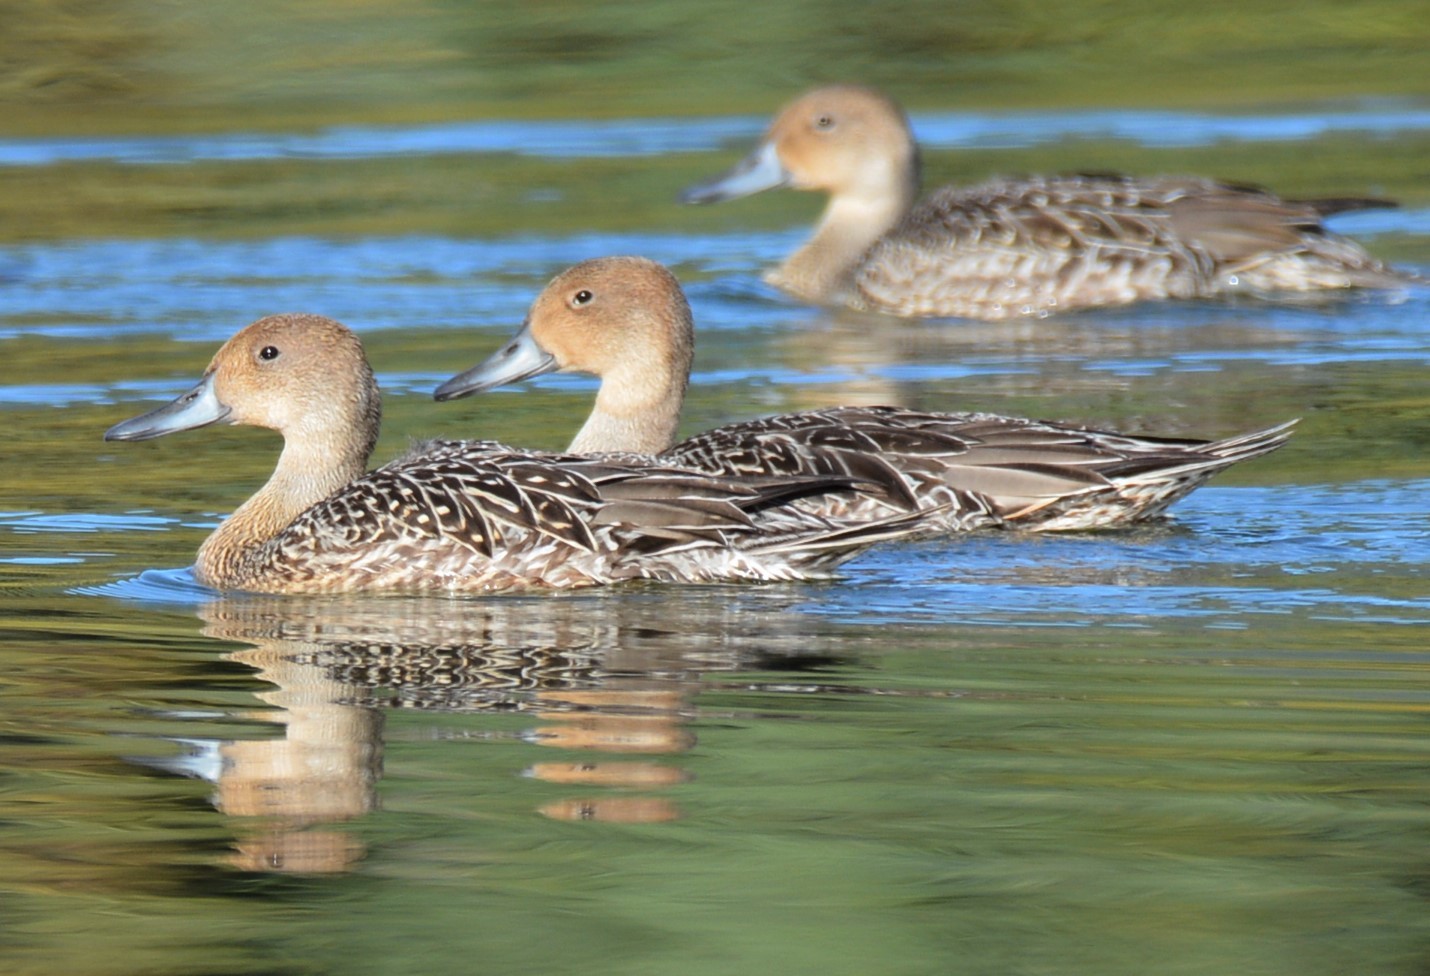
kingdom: Animalia
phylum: Chordata
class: Aves
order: Anseriformes
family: Anatidae
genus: Anas
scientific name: Anas acuta
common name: Northern pintail
